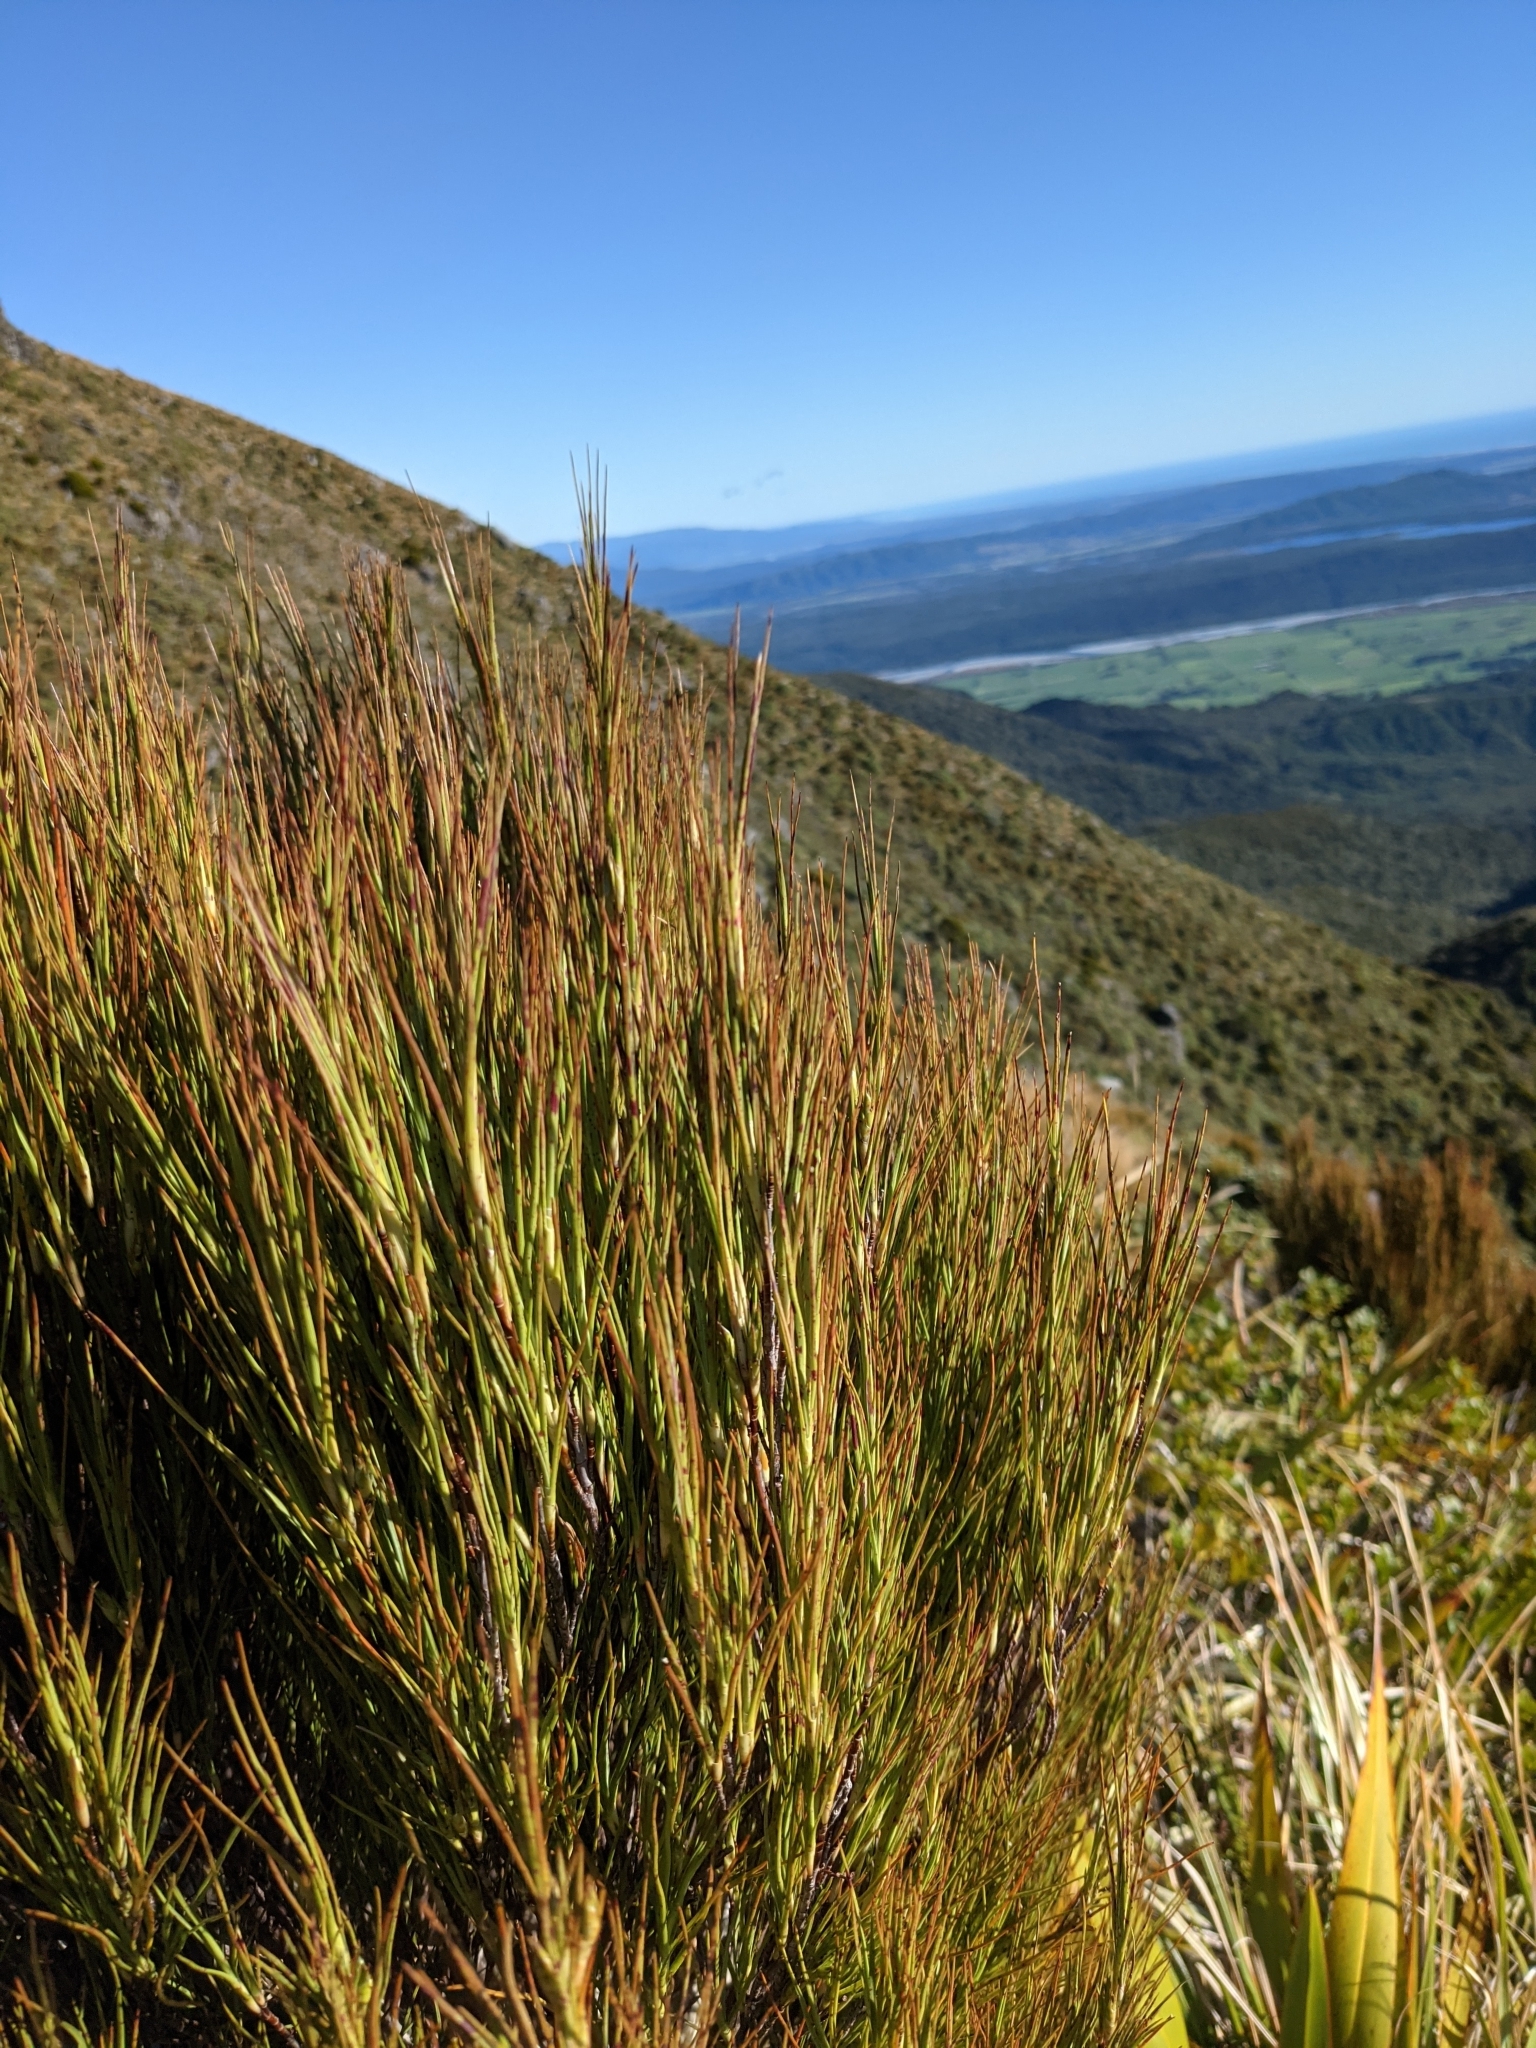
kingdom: Plantae
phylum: Tracheophyta
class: Magnoliopsida
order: Ericales
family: Ericaceae
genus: Dracophyllum
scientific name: Dracophyllum longifolium
